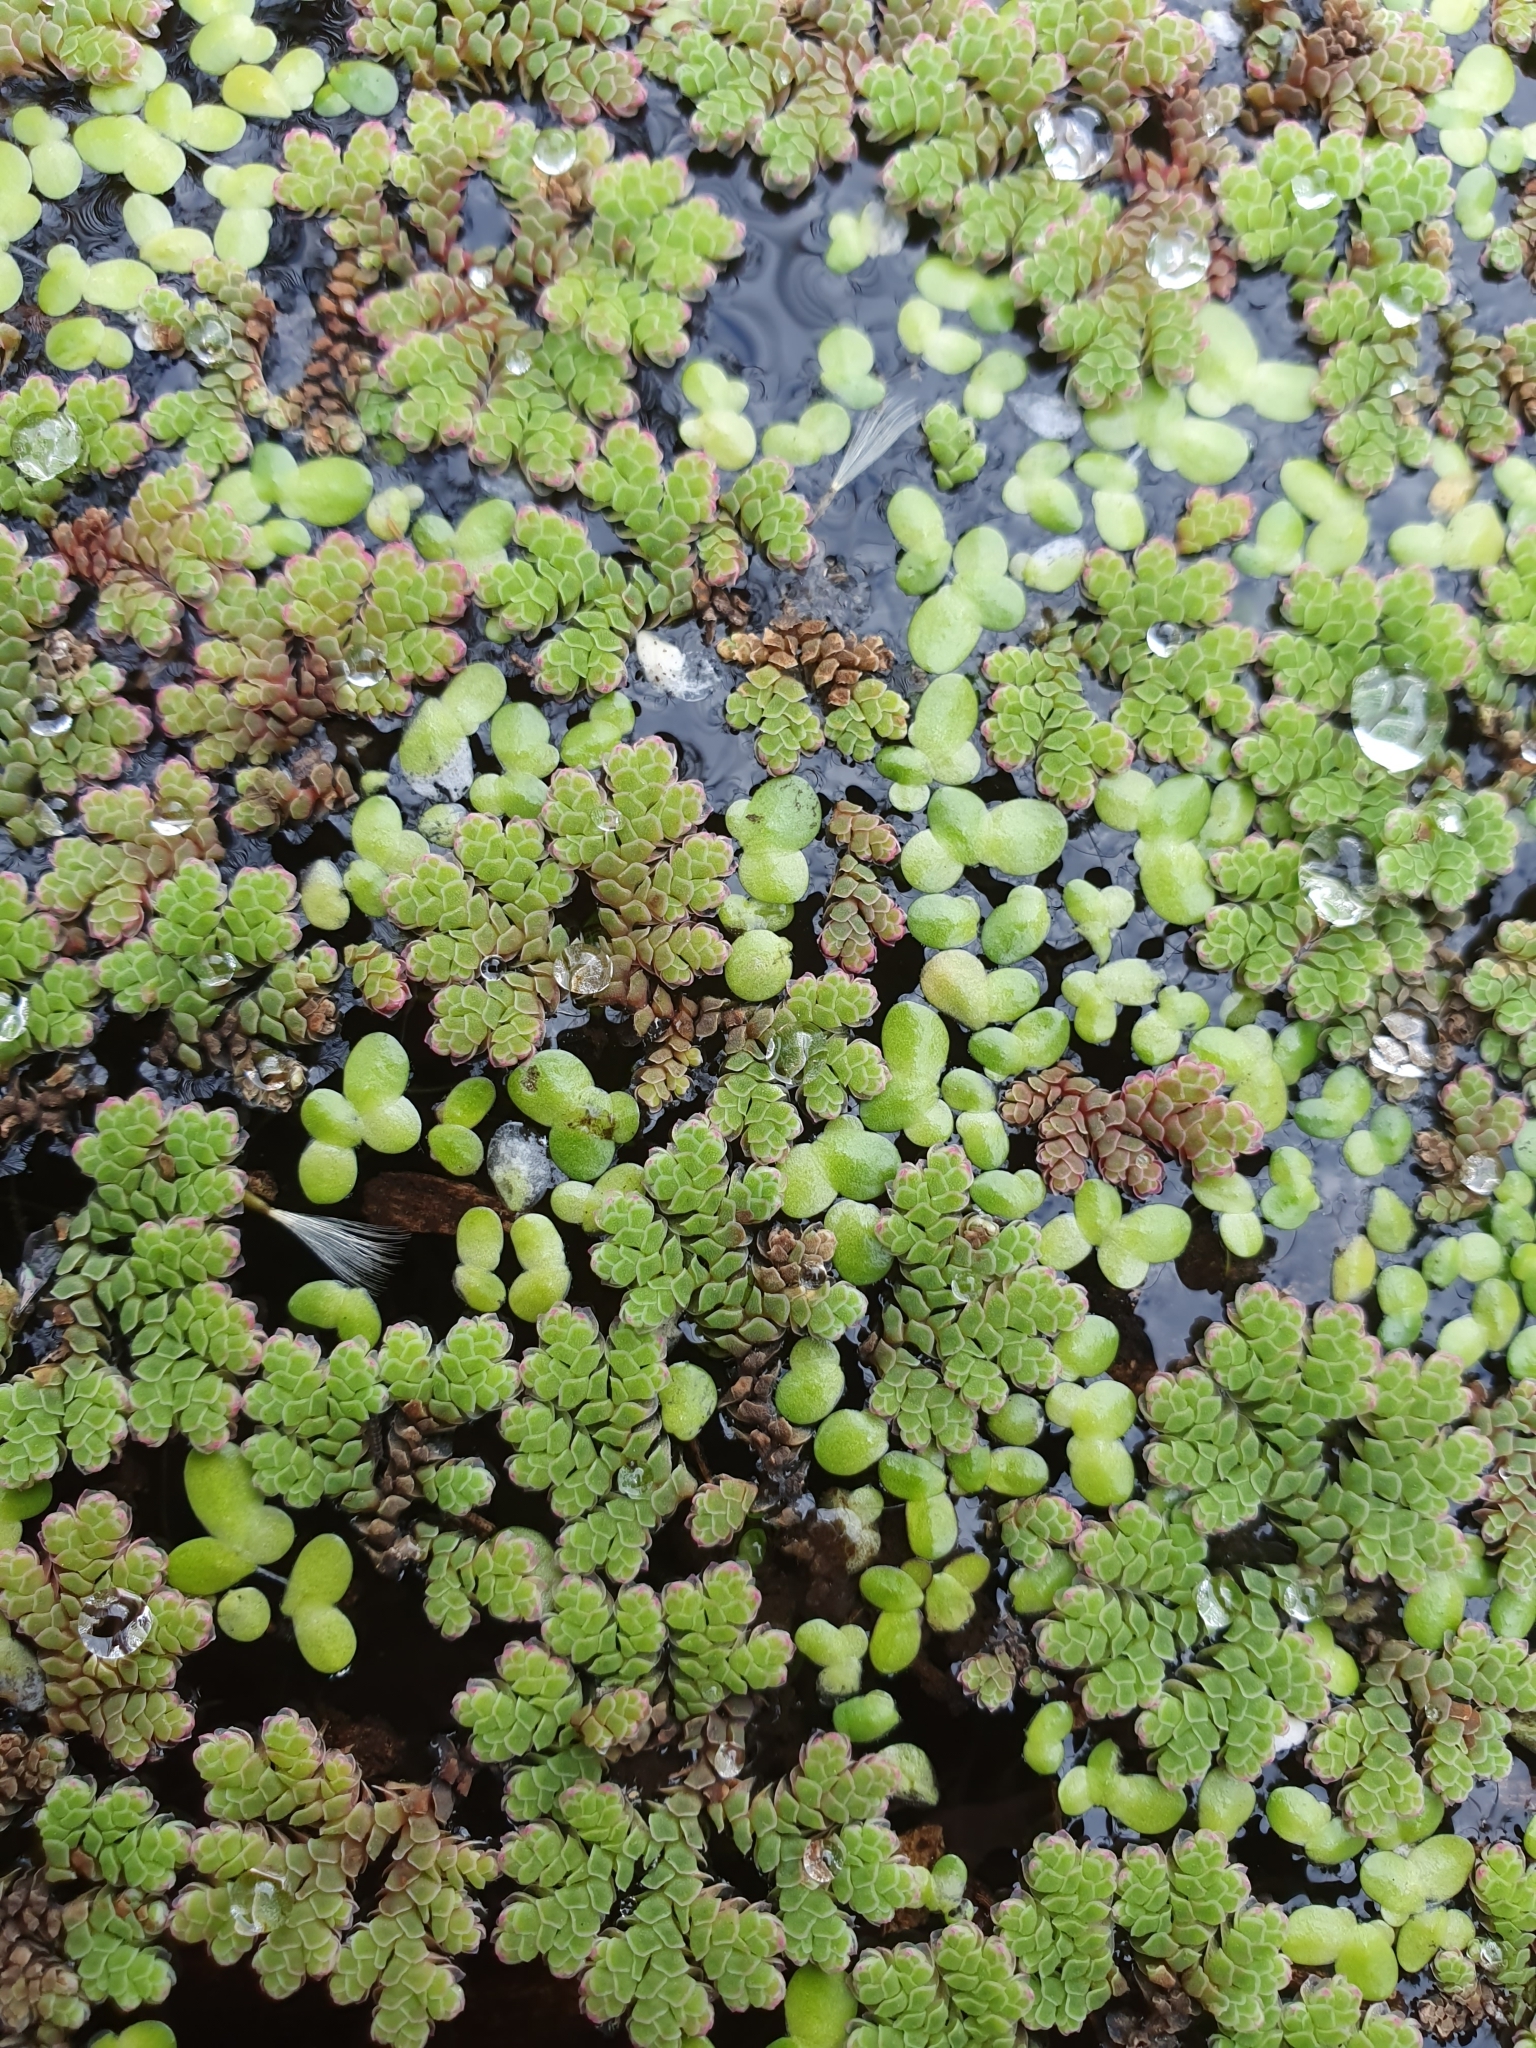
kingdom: Plantae
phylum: Tracheophyta
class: Polypodiopsida
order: Salviniales
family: Salviniaceae
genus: Azolla
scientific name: Azolla rubra
